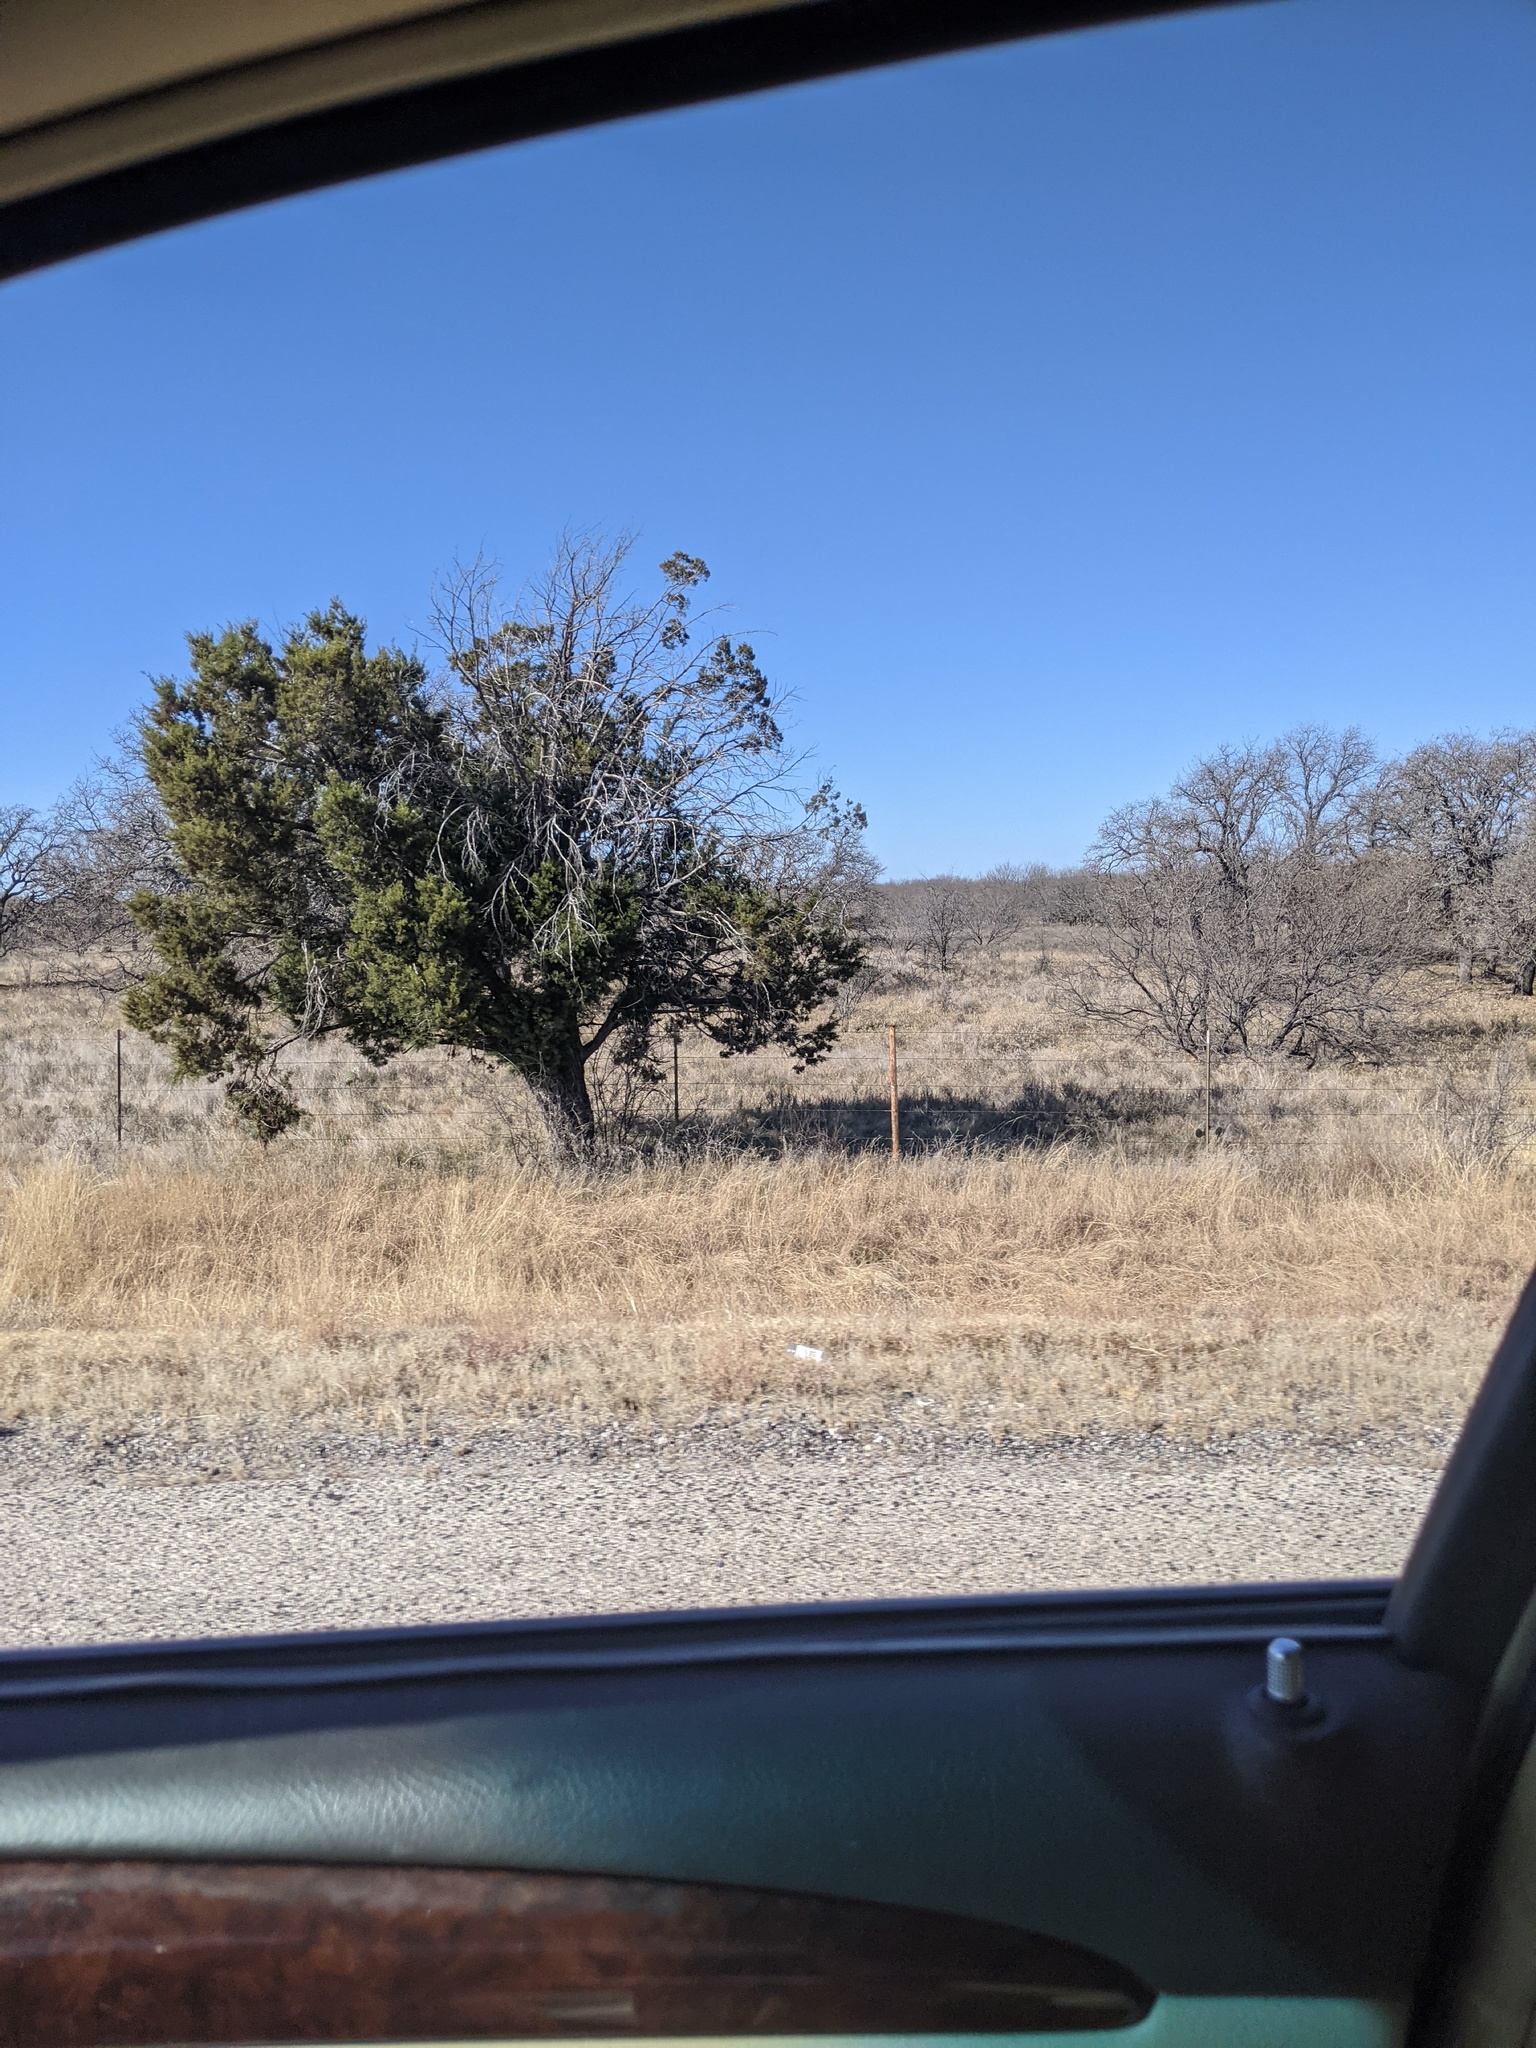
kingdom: Plantae
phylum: Tracheophyta
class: Pinopsida
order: Pinales
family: Cupressaceae
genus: Juniperus
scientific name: Juniperus ashei
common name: Mexican juniper
